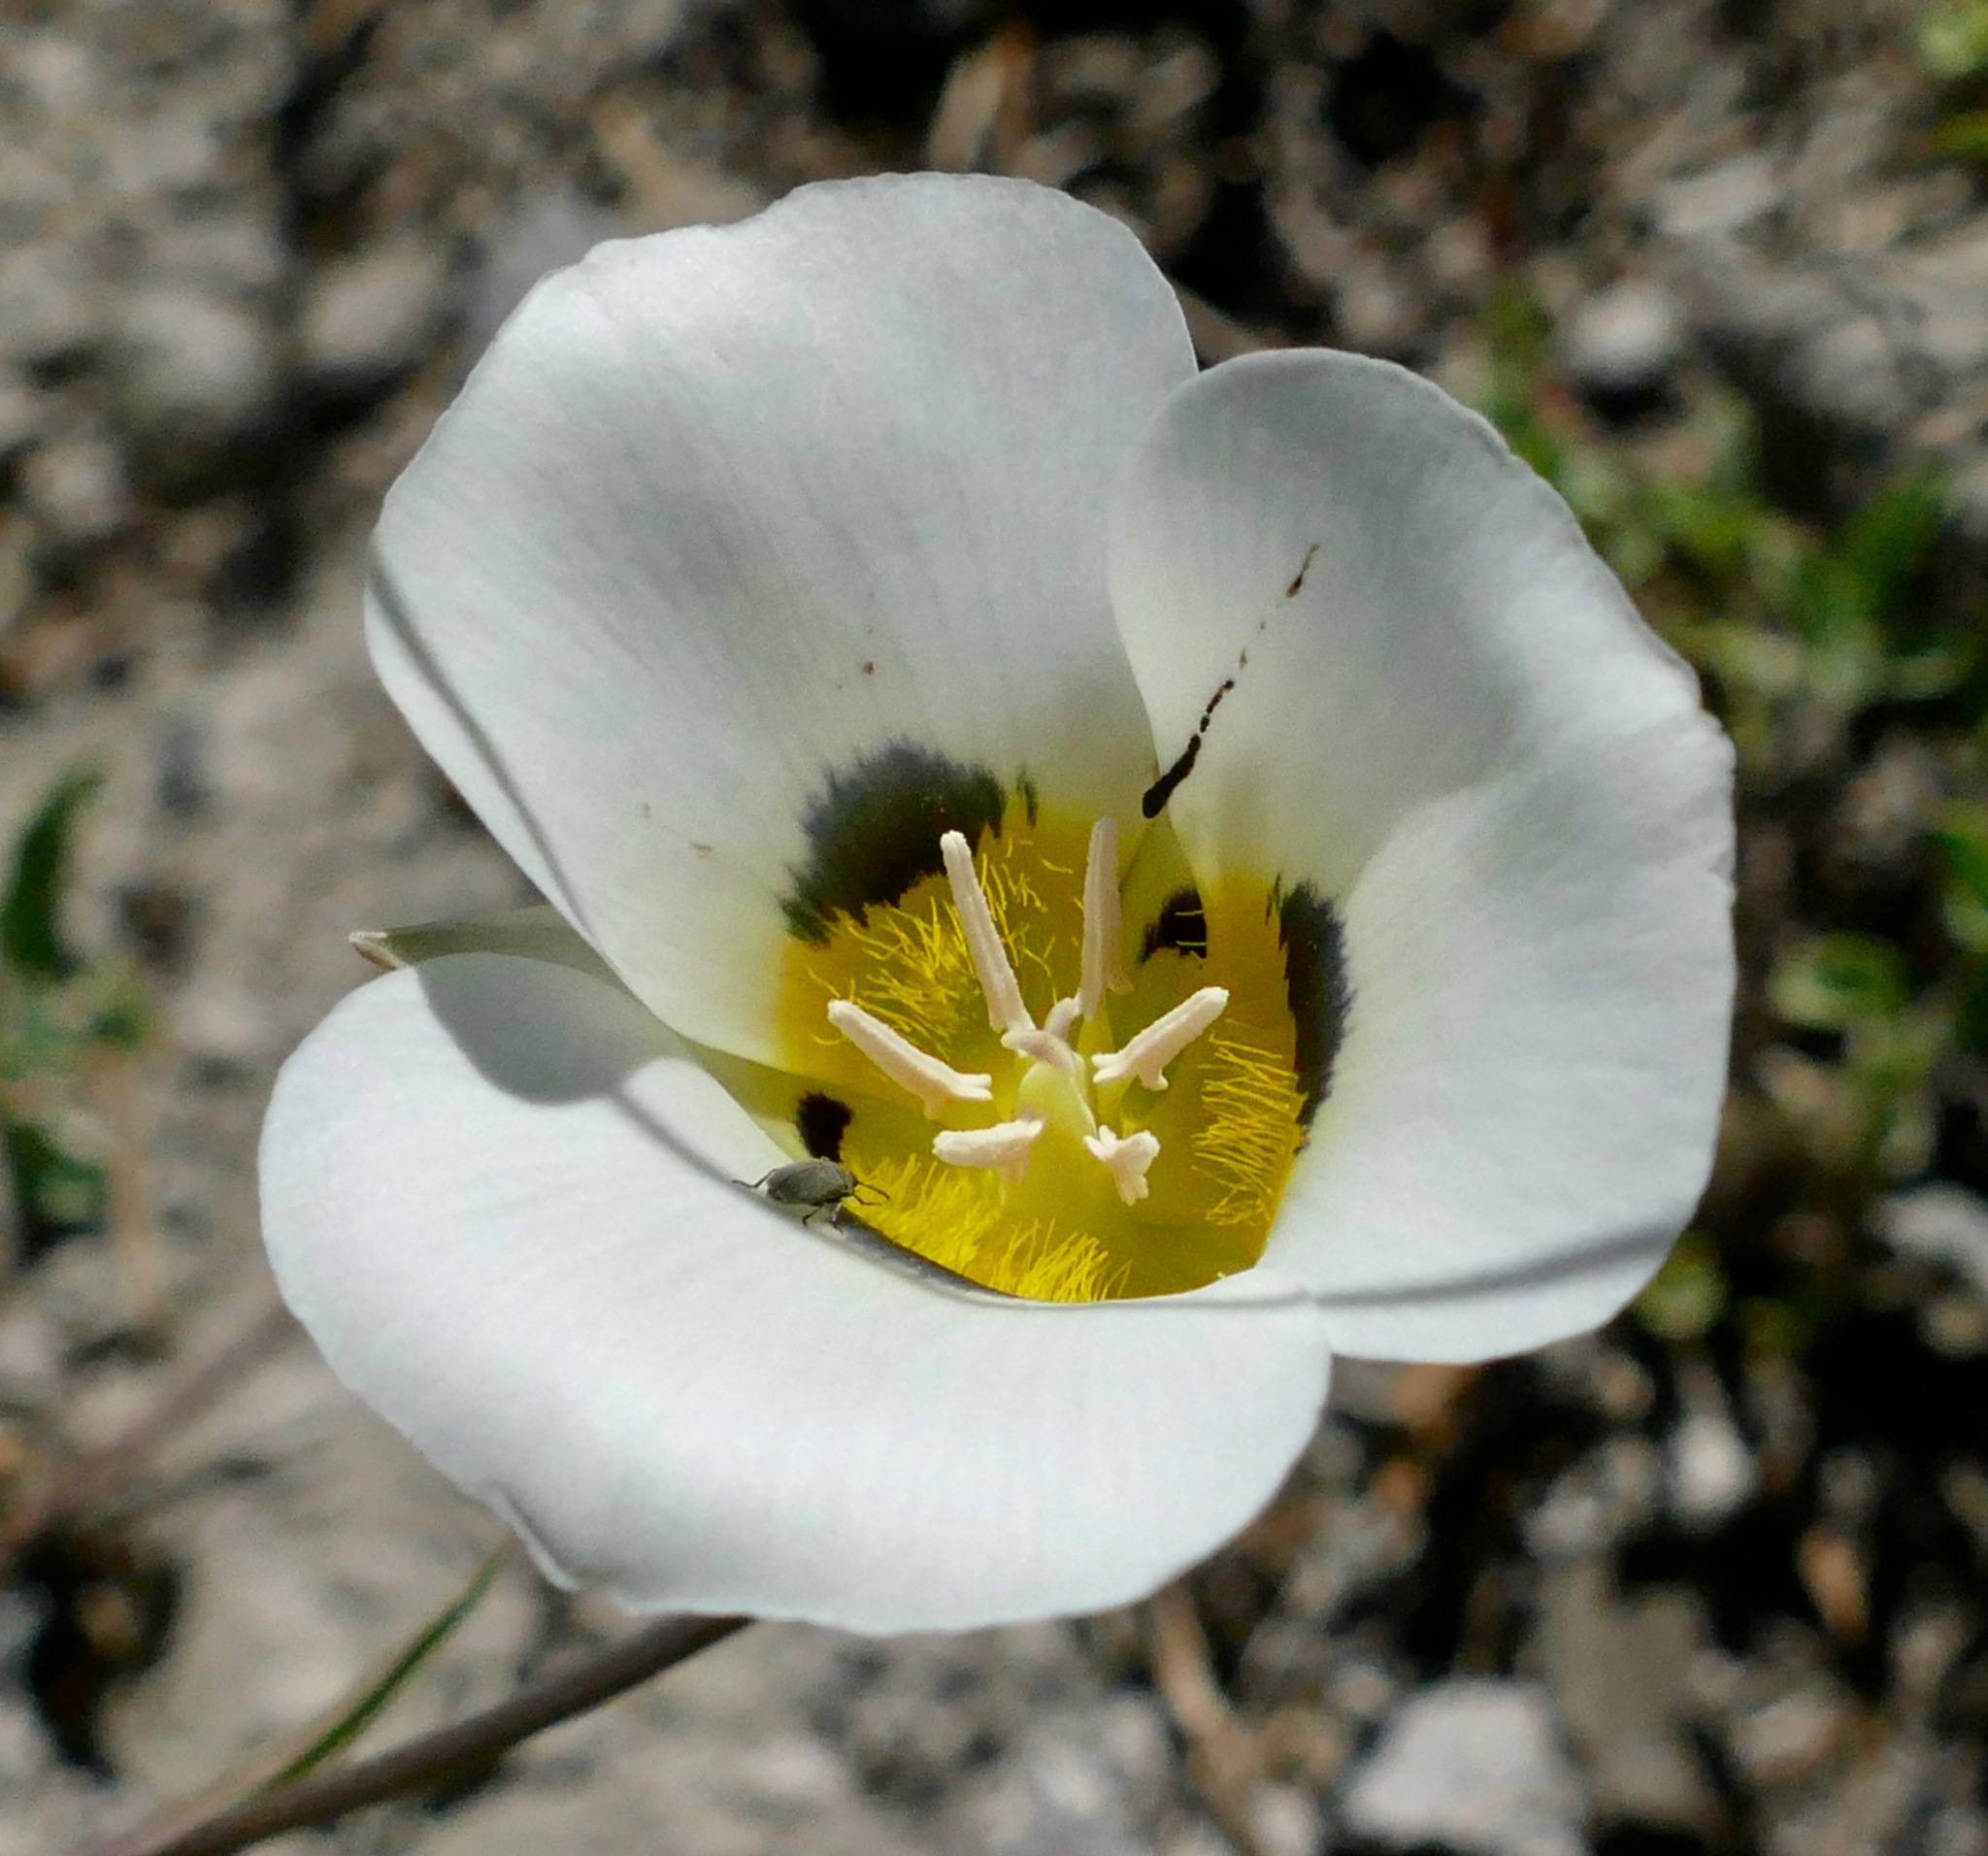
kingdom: Plantae
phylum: Tracheophyta
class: Liliopsida
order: Liliales
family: Liliaceae
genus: Calochortus
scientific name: Calochortus leichtlinii
